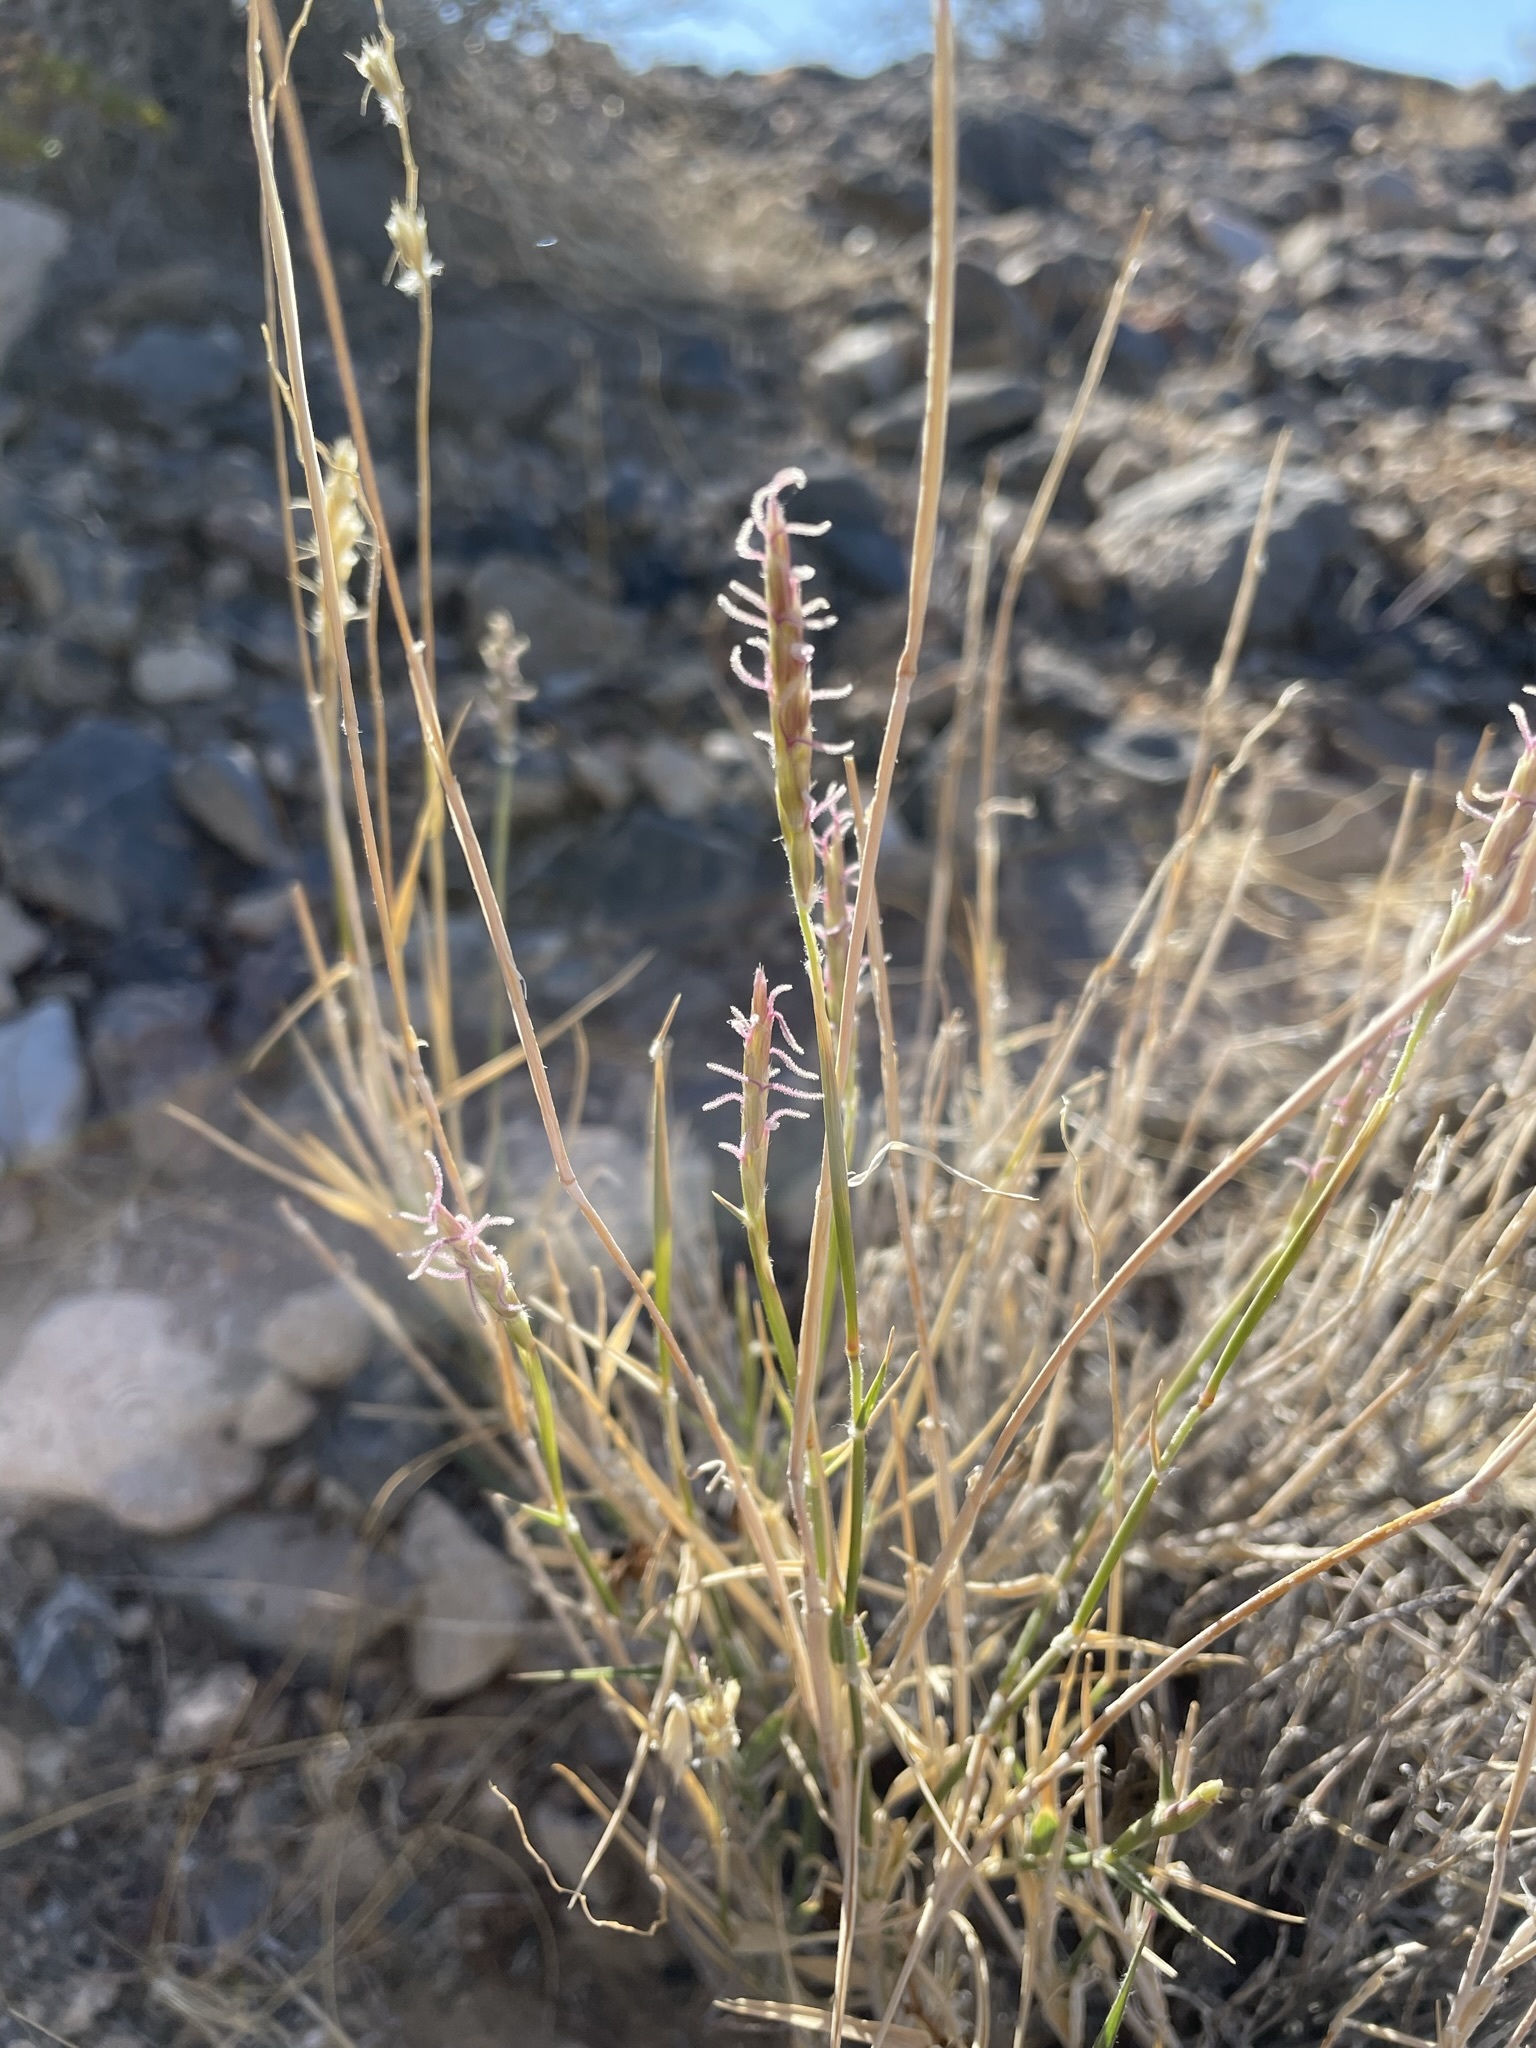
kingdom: Plantae
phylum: Tracheophyta
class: Liliopsida
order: Poales
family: Poaceae
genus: Hilaria
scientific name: Hilaria rigida
